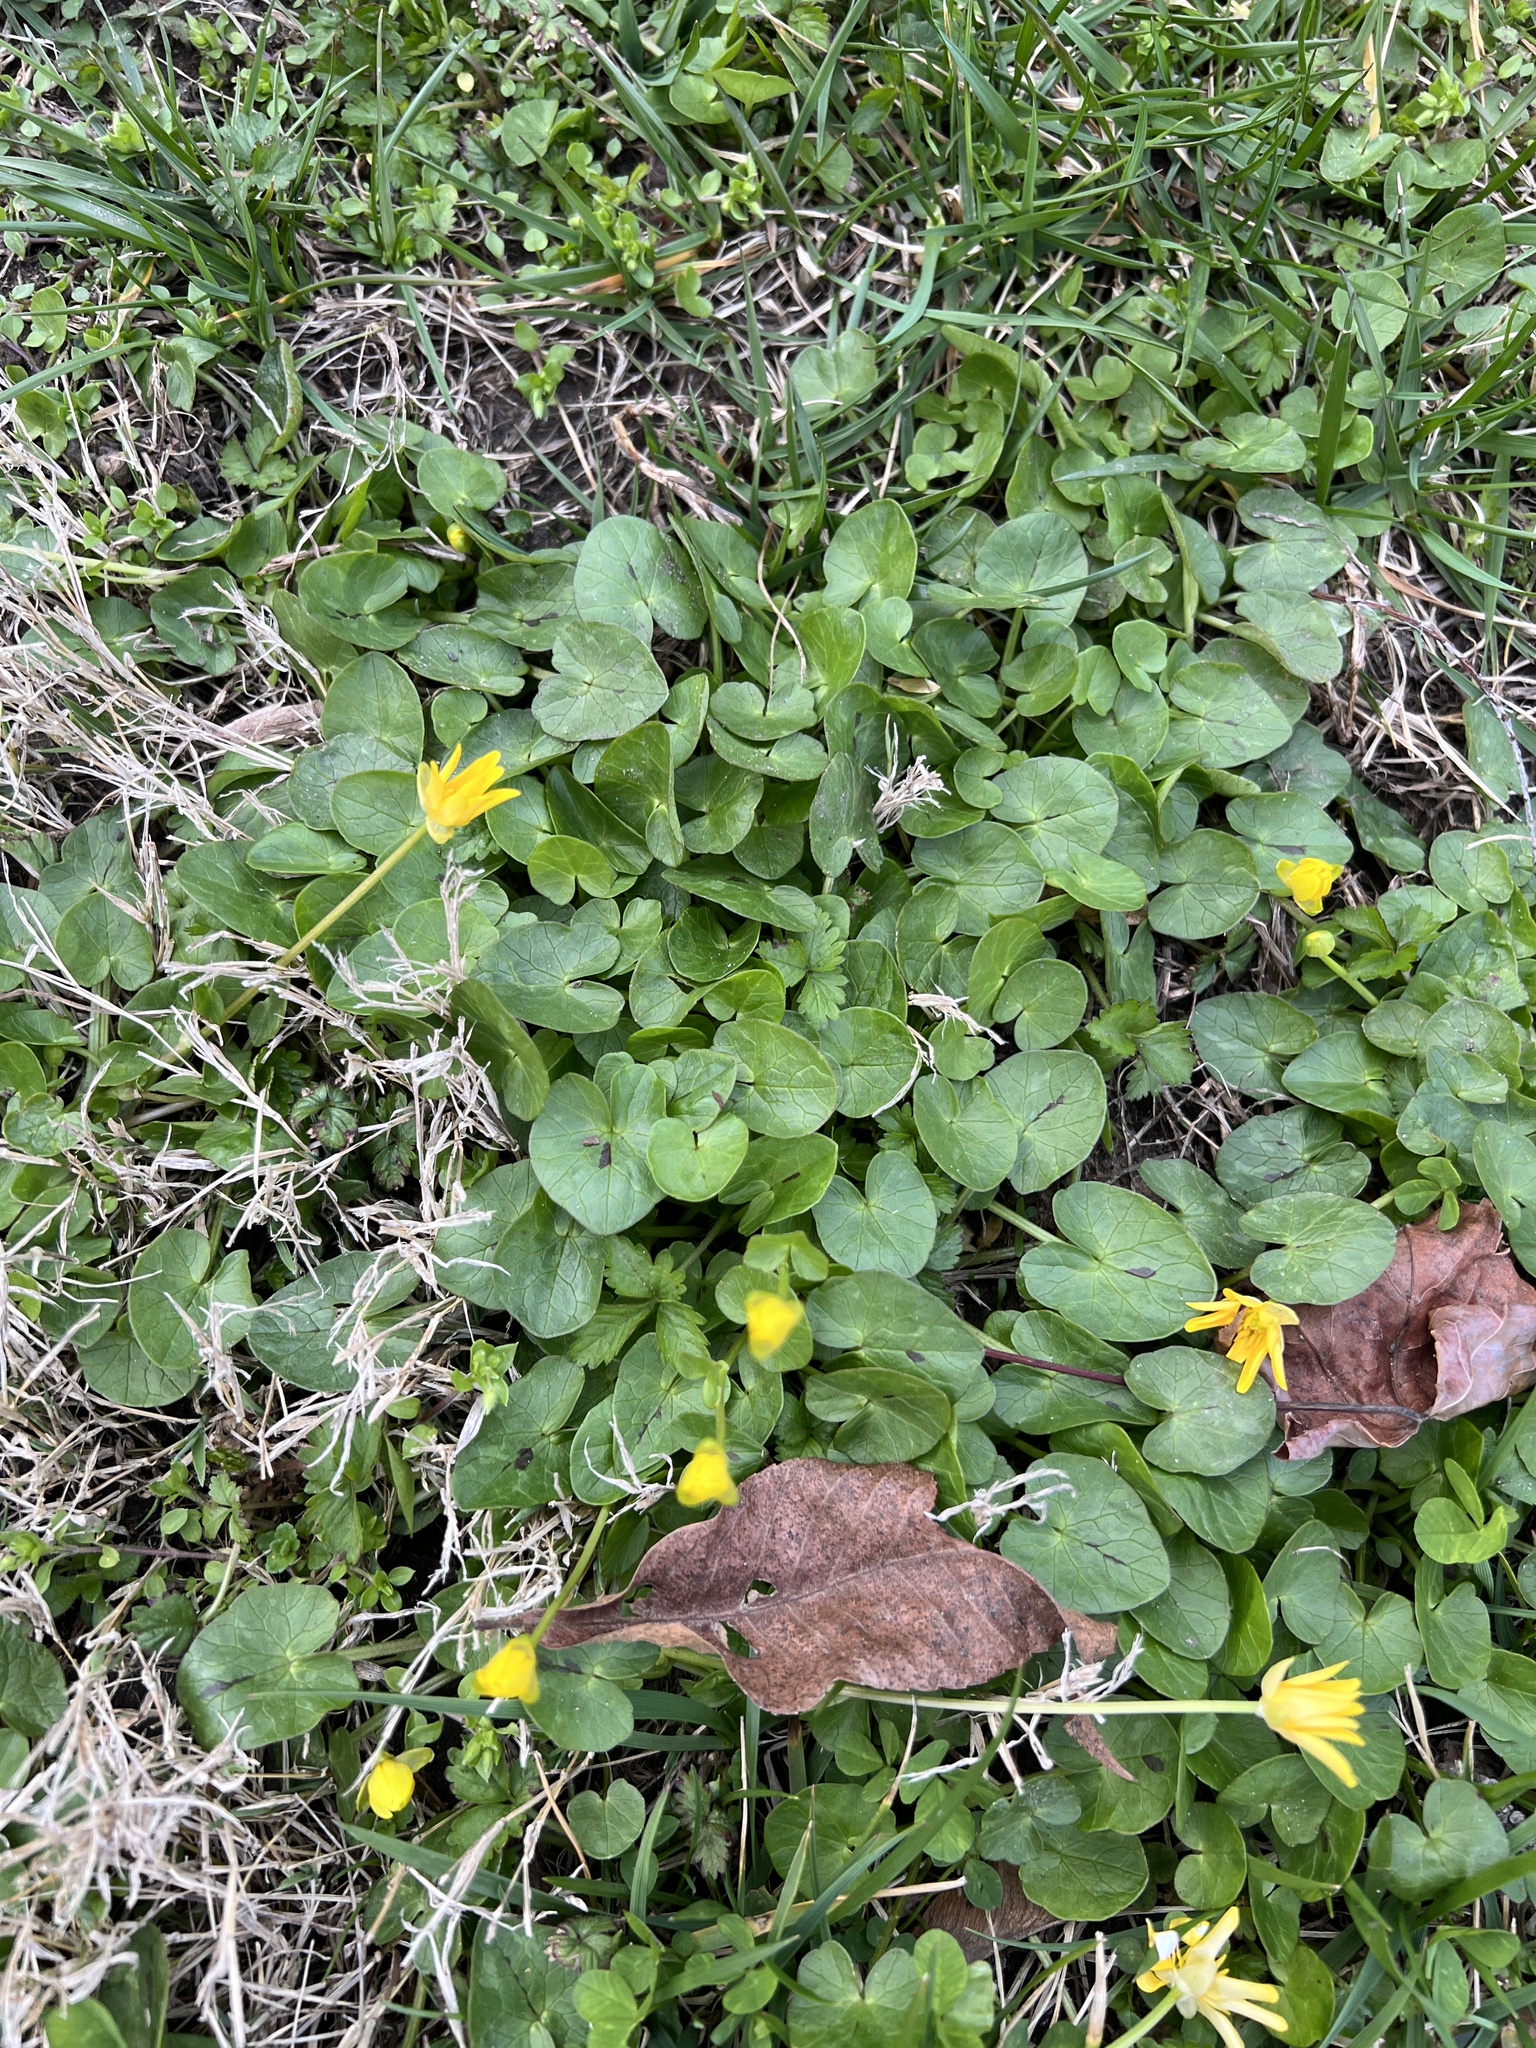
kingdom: Plantae
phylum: Tracheophyta
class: Magnoliopsida
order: Ranunculales
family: Ranunculaceae
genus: Ficaria
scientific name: Ficaria verna
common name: Lesser celandine
